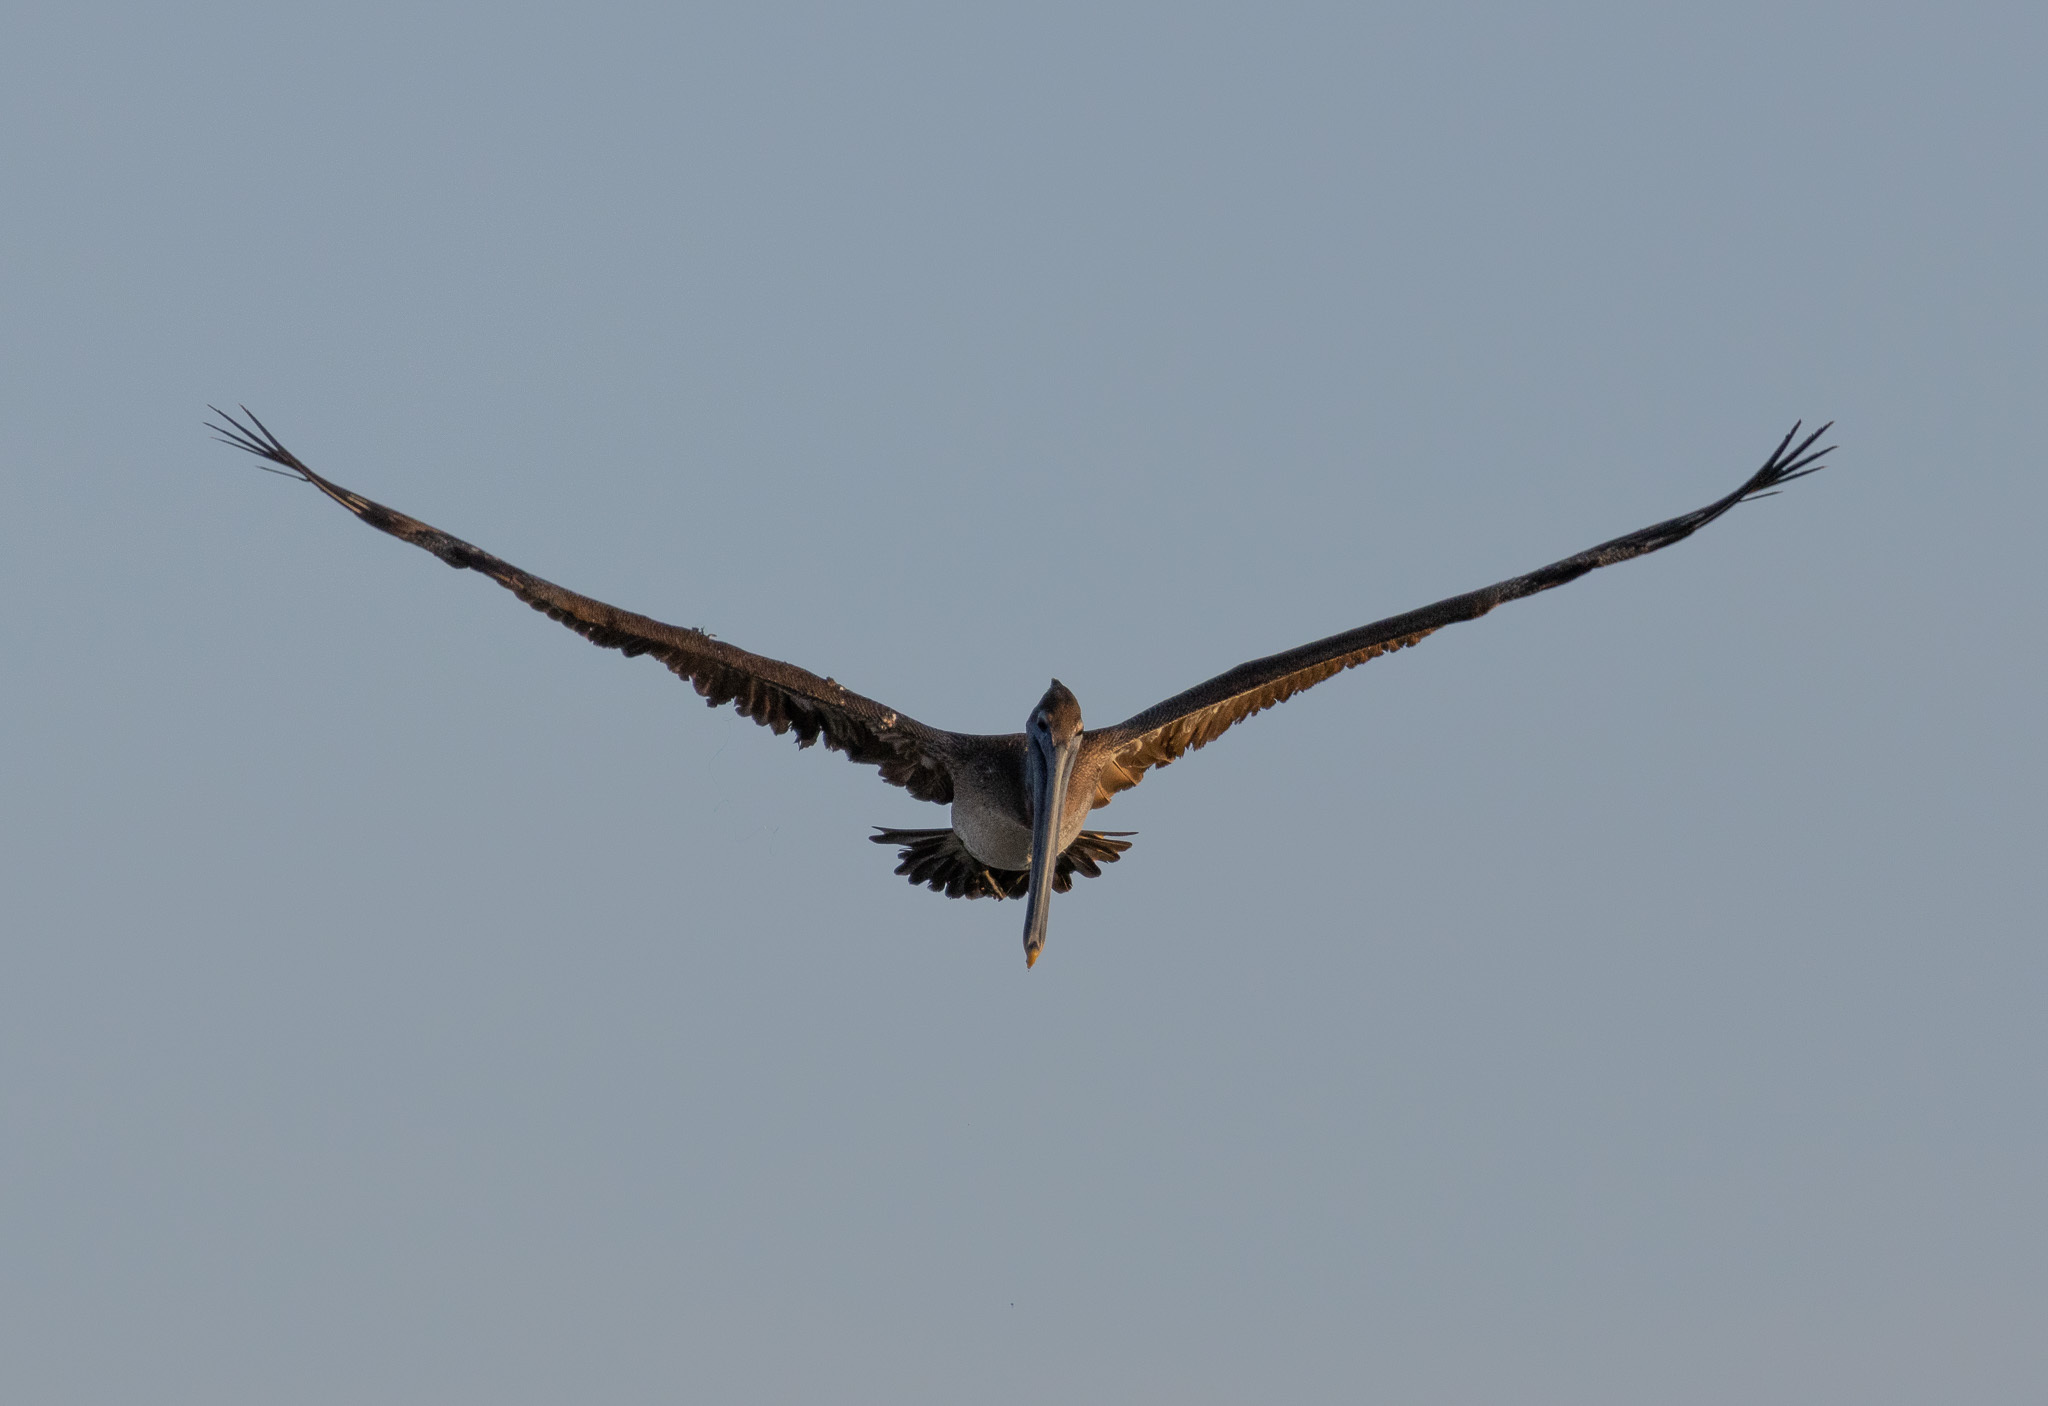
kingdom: Animalia
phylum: Chordata
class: Aves
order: Pelecaniformes
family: Pelecanidae
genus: Pelecanus
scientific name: Pelecanus occidentalis
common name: Brown pelican
